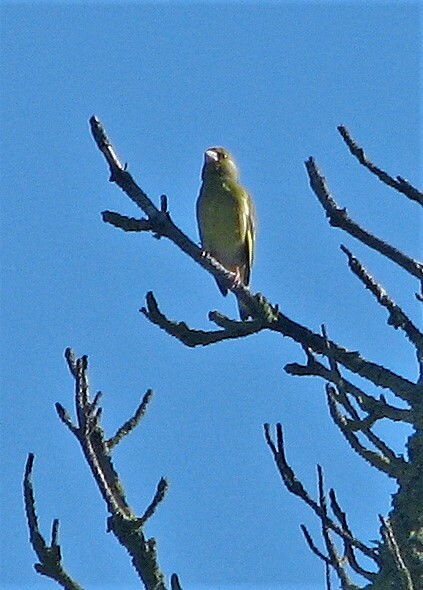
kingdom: Plantae
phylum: Tracheophyta
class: Liliopsida
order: Poales
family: Poaceae
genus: Chloris
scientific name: Chloris chloris
